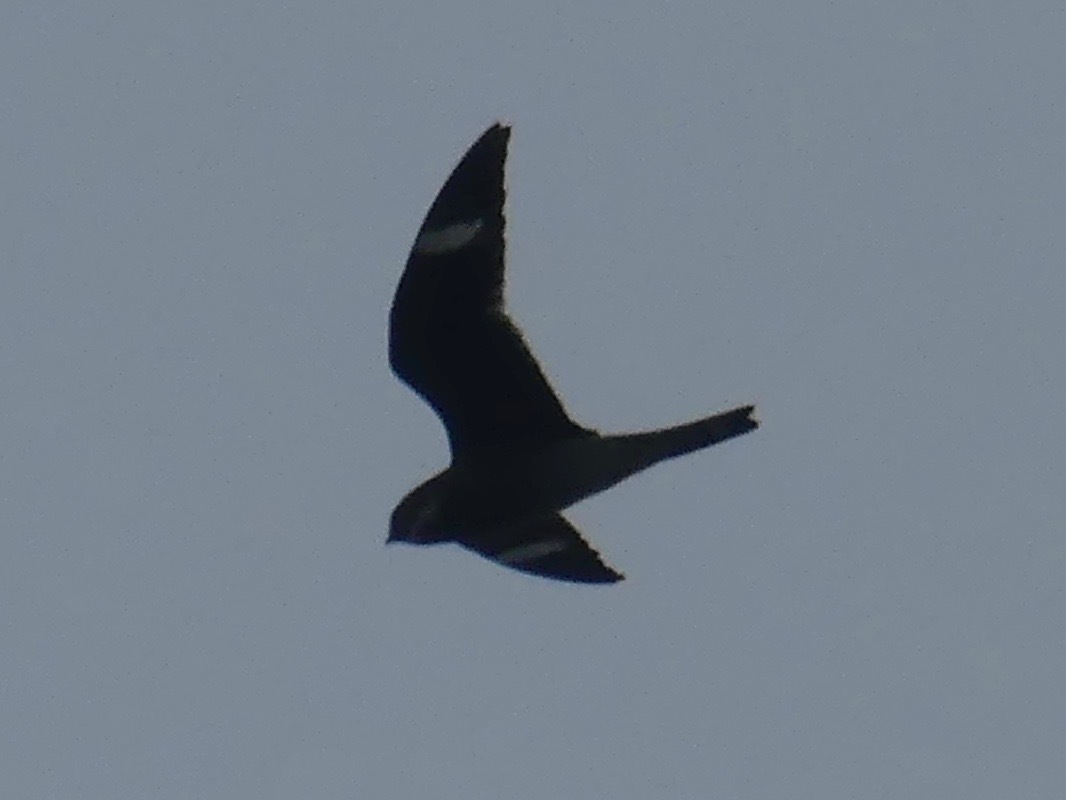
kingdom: Animalia
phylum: Chordata
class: Aves
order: Caprimulgiformes
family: Caprimulgidae
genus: Chordeiles
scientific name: Chordeiles minor
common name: Common nighthawk
